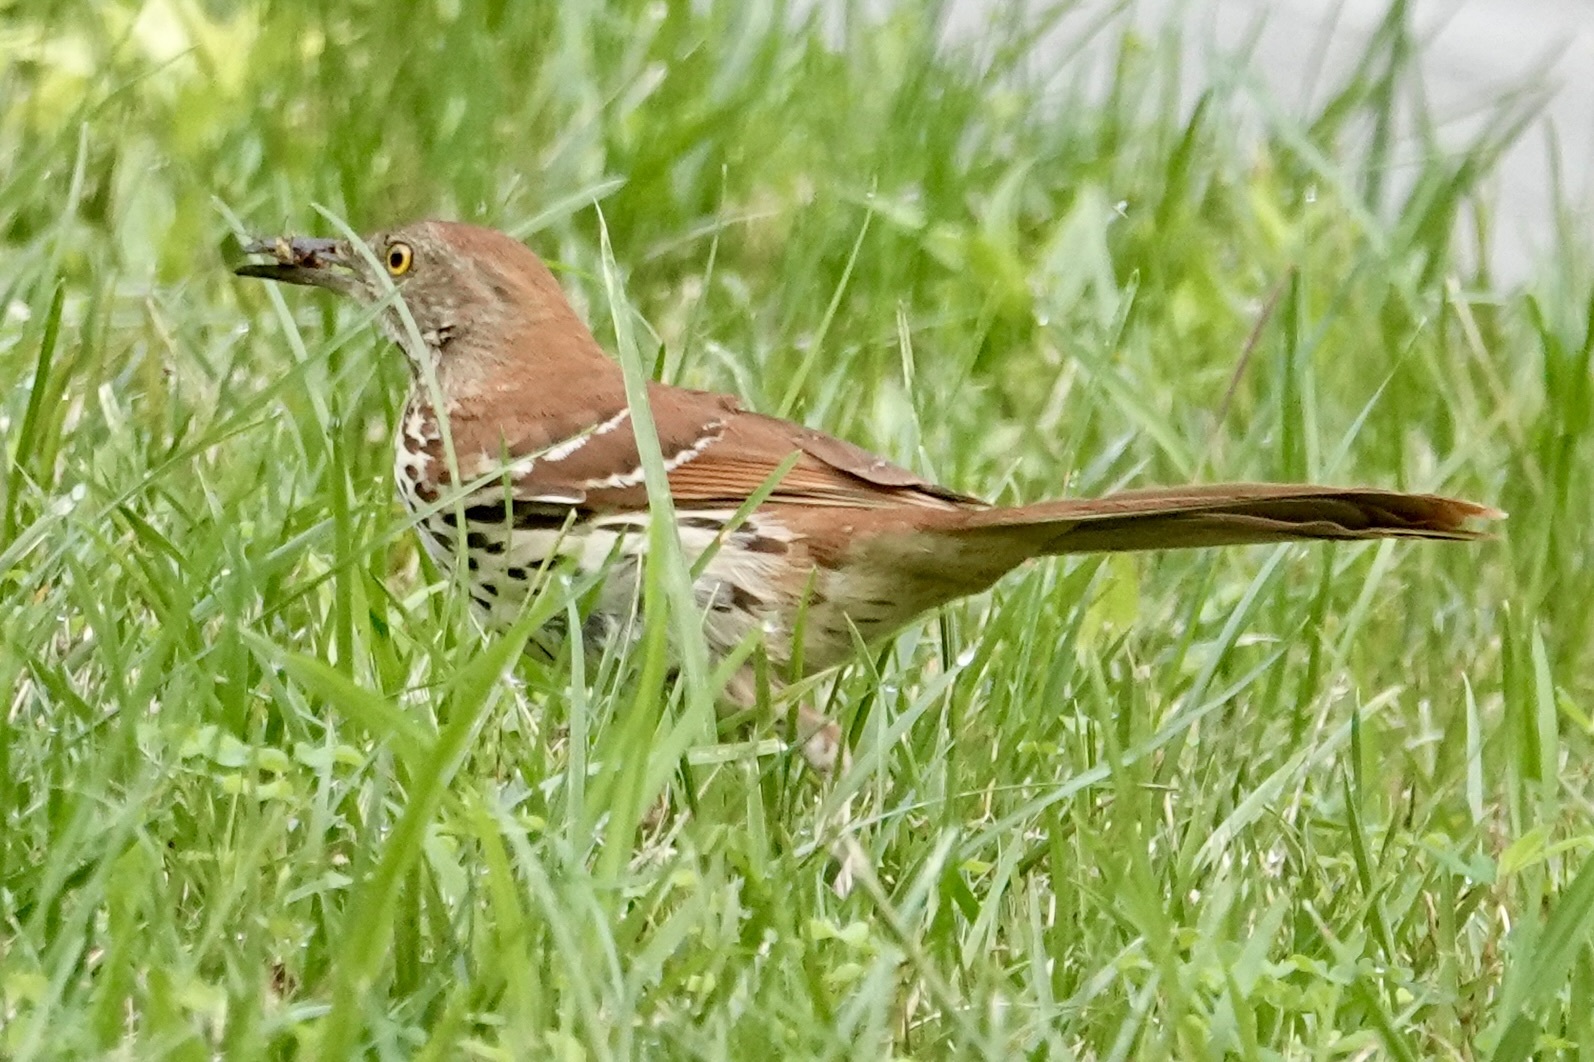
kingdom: Animalia
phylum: Chordata
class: Aves
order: Passeriformes
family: Mimidae
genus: Toxostoma
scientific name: Toxostoma rufum
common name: Brown thrasher
